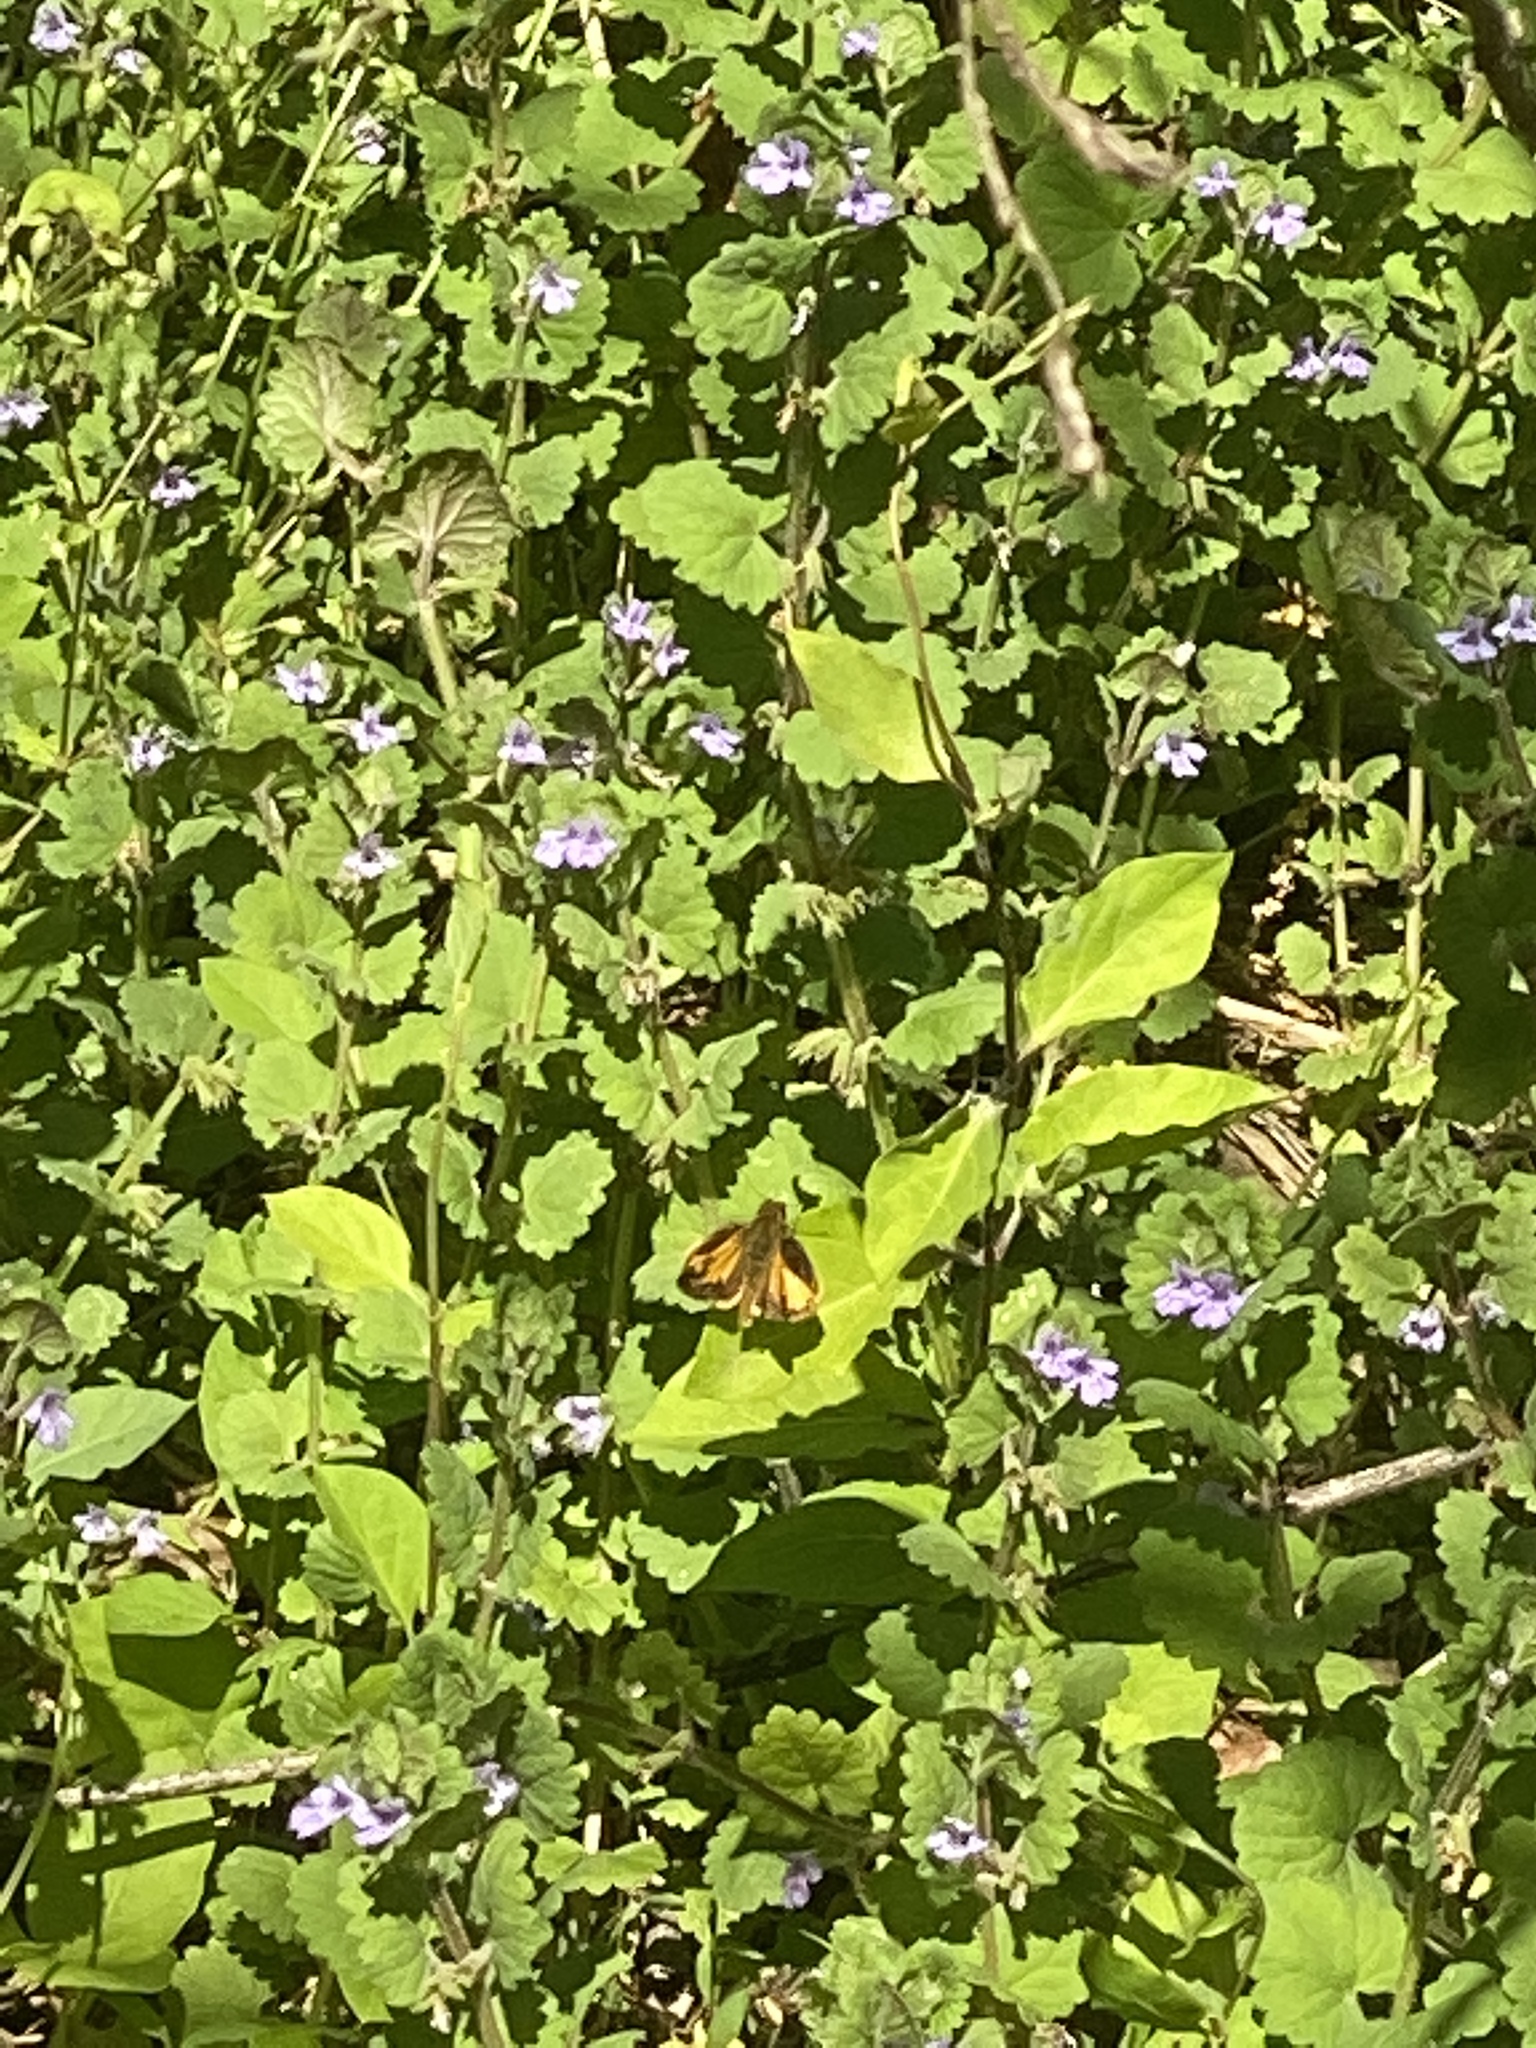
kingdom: Animalia
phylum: Arthropoda
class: Insecta
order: Lepidoptera
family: Hesperiidae
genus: Lon
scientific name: Lon zabulon
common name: Zabulon skipper
